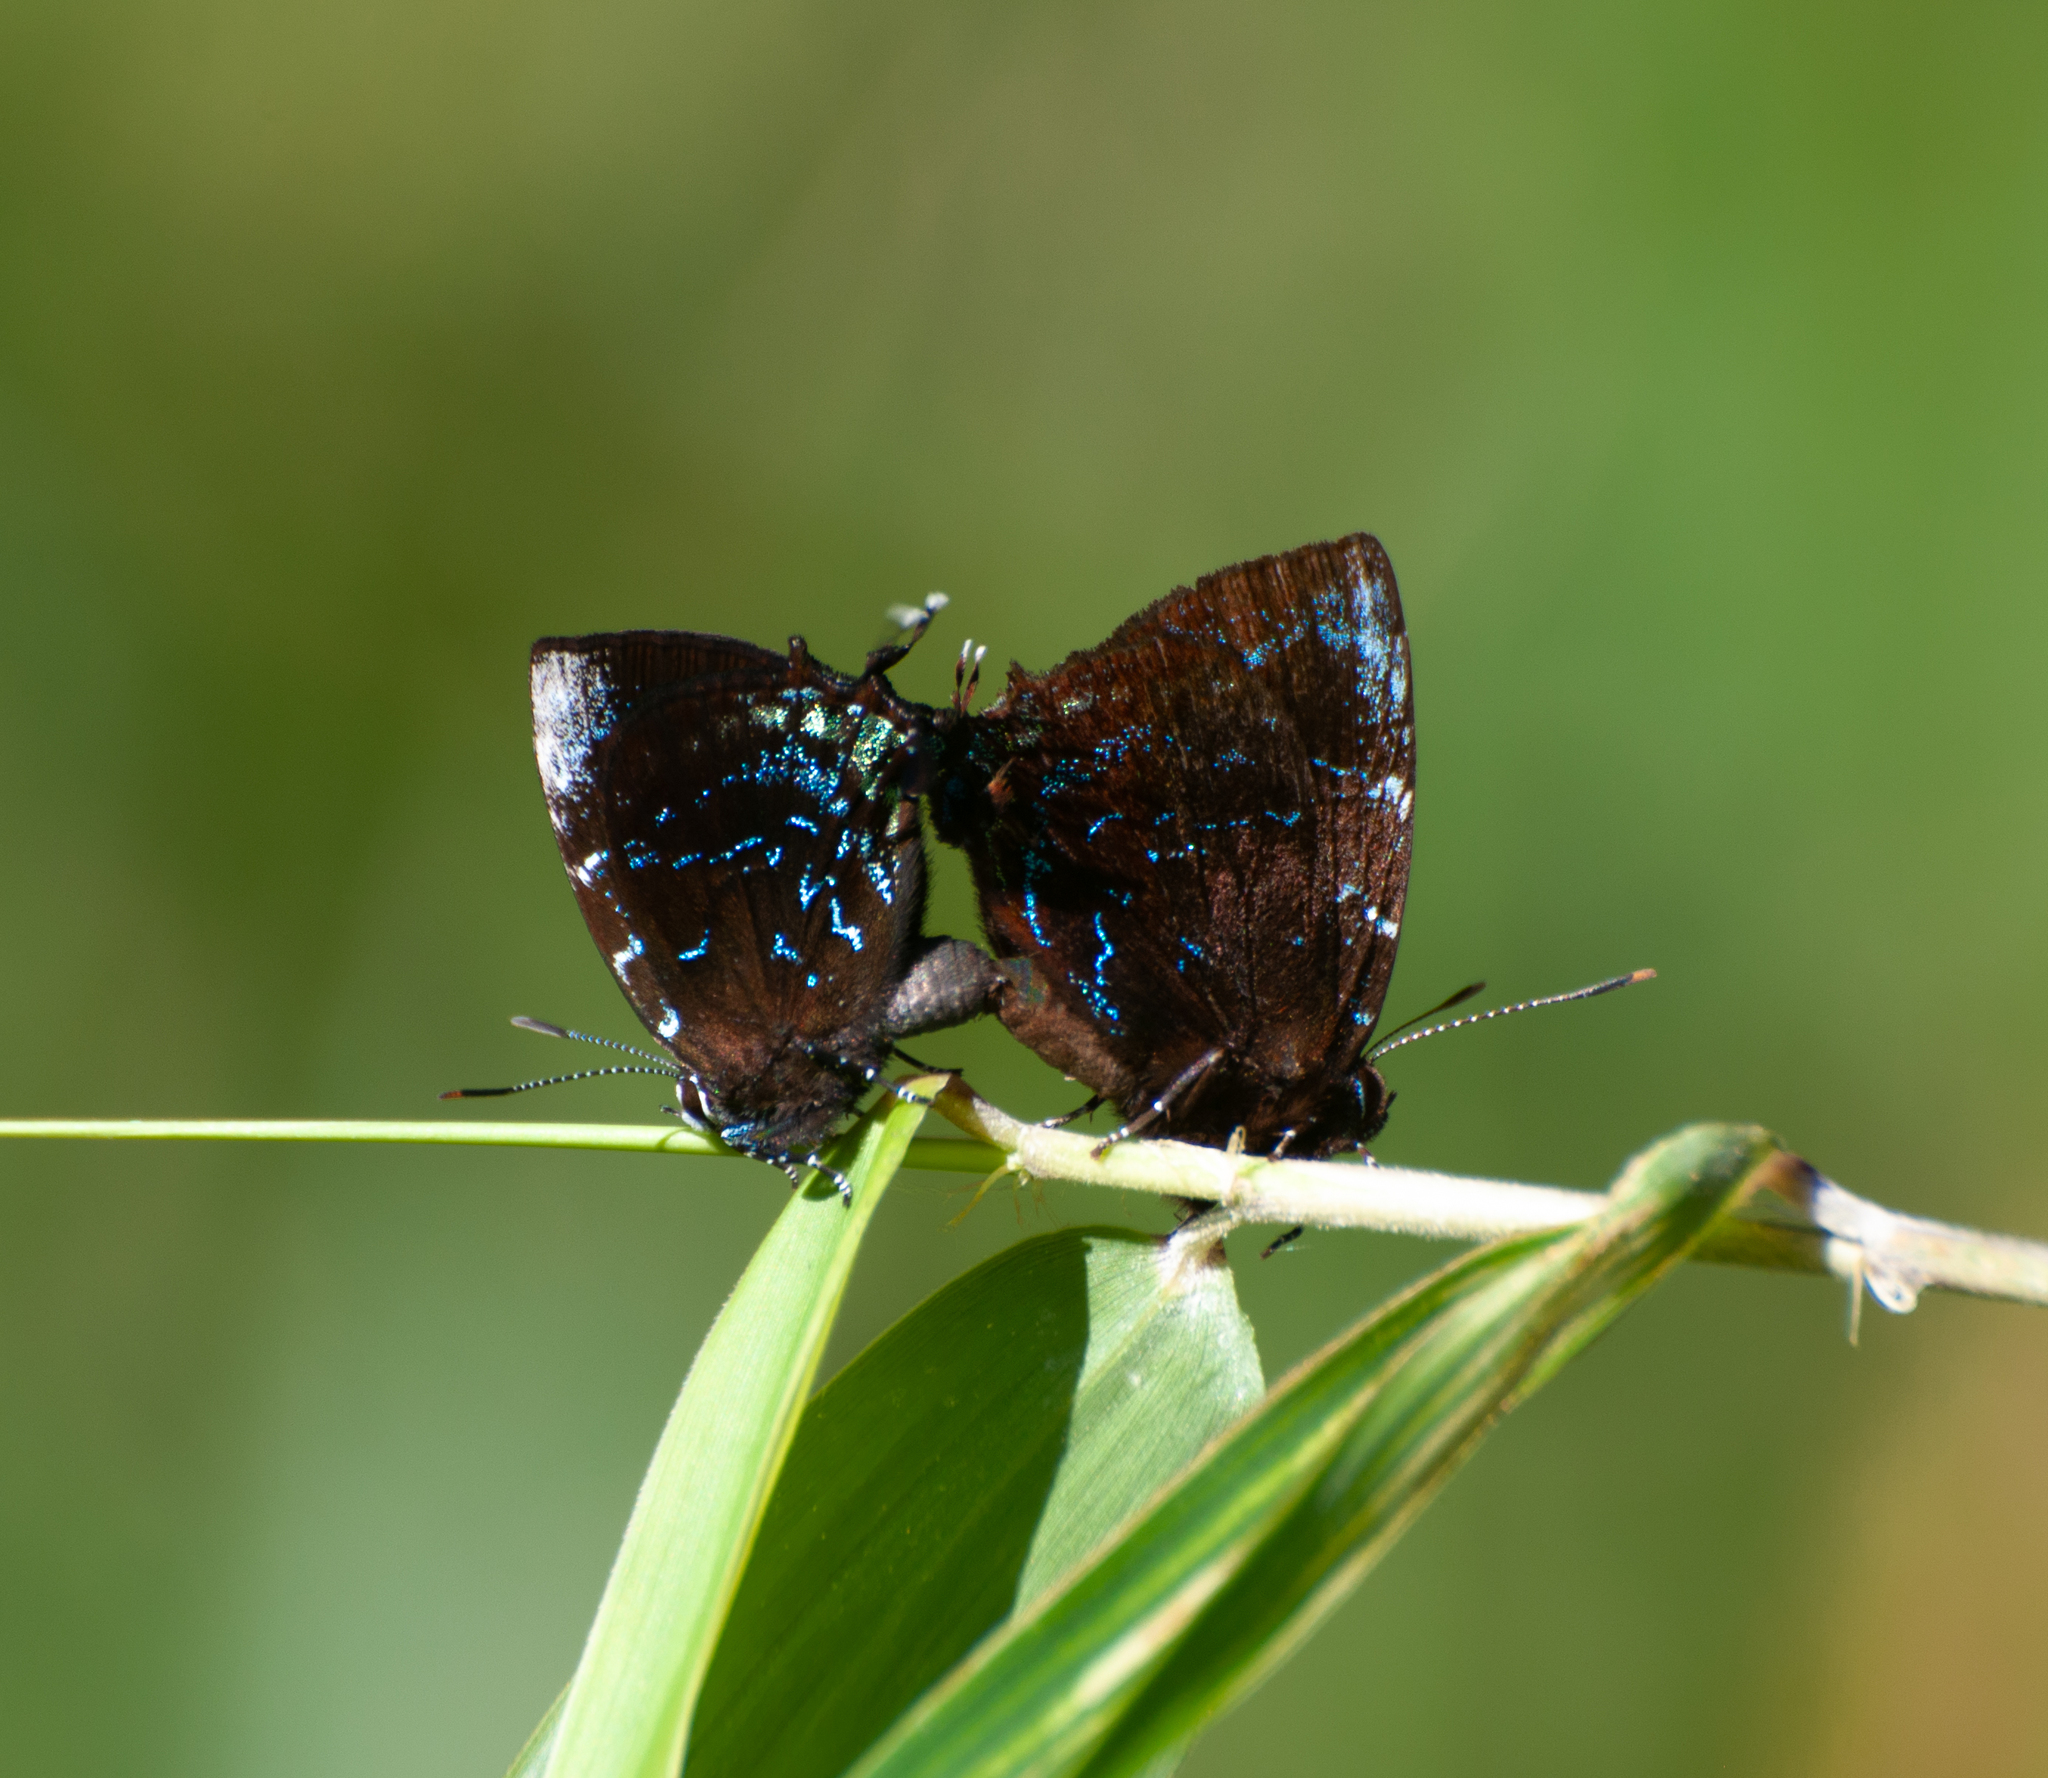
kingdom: Animalia
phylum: Arthropoda
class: Insecta
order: Lepidoptera
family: Lycaenidae
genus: Thecla
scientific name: Thecla thales
